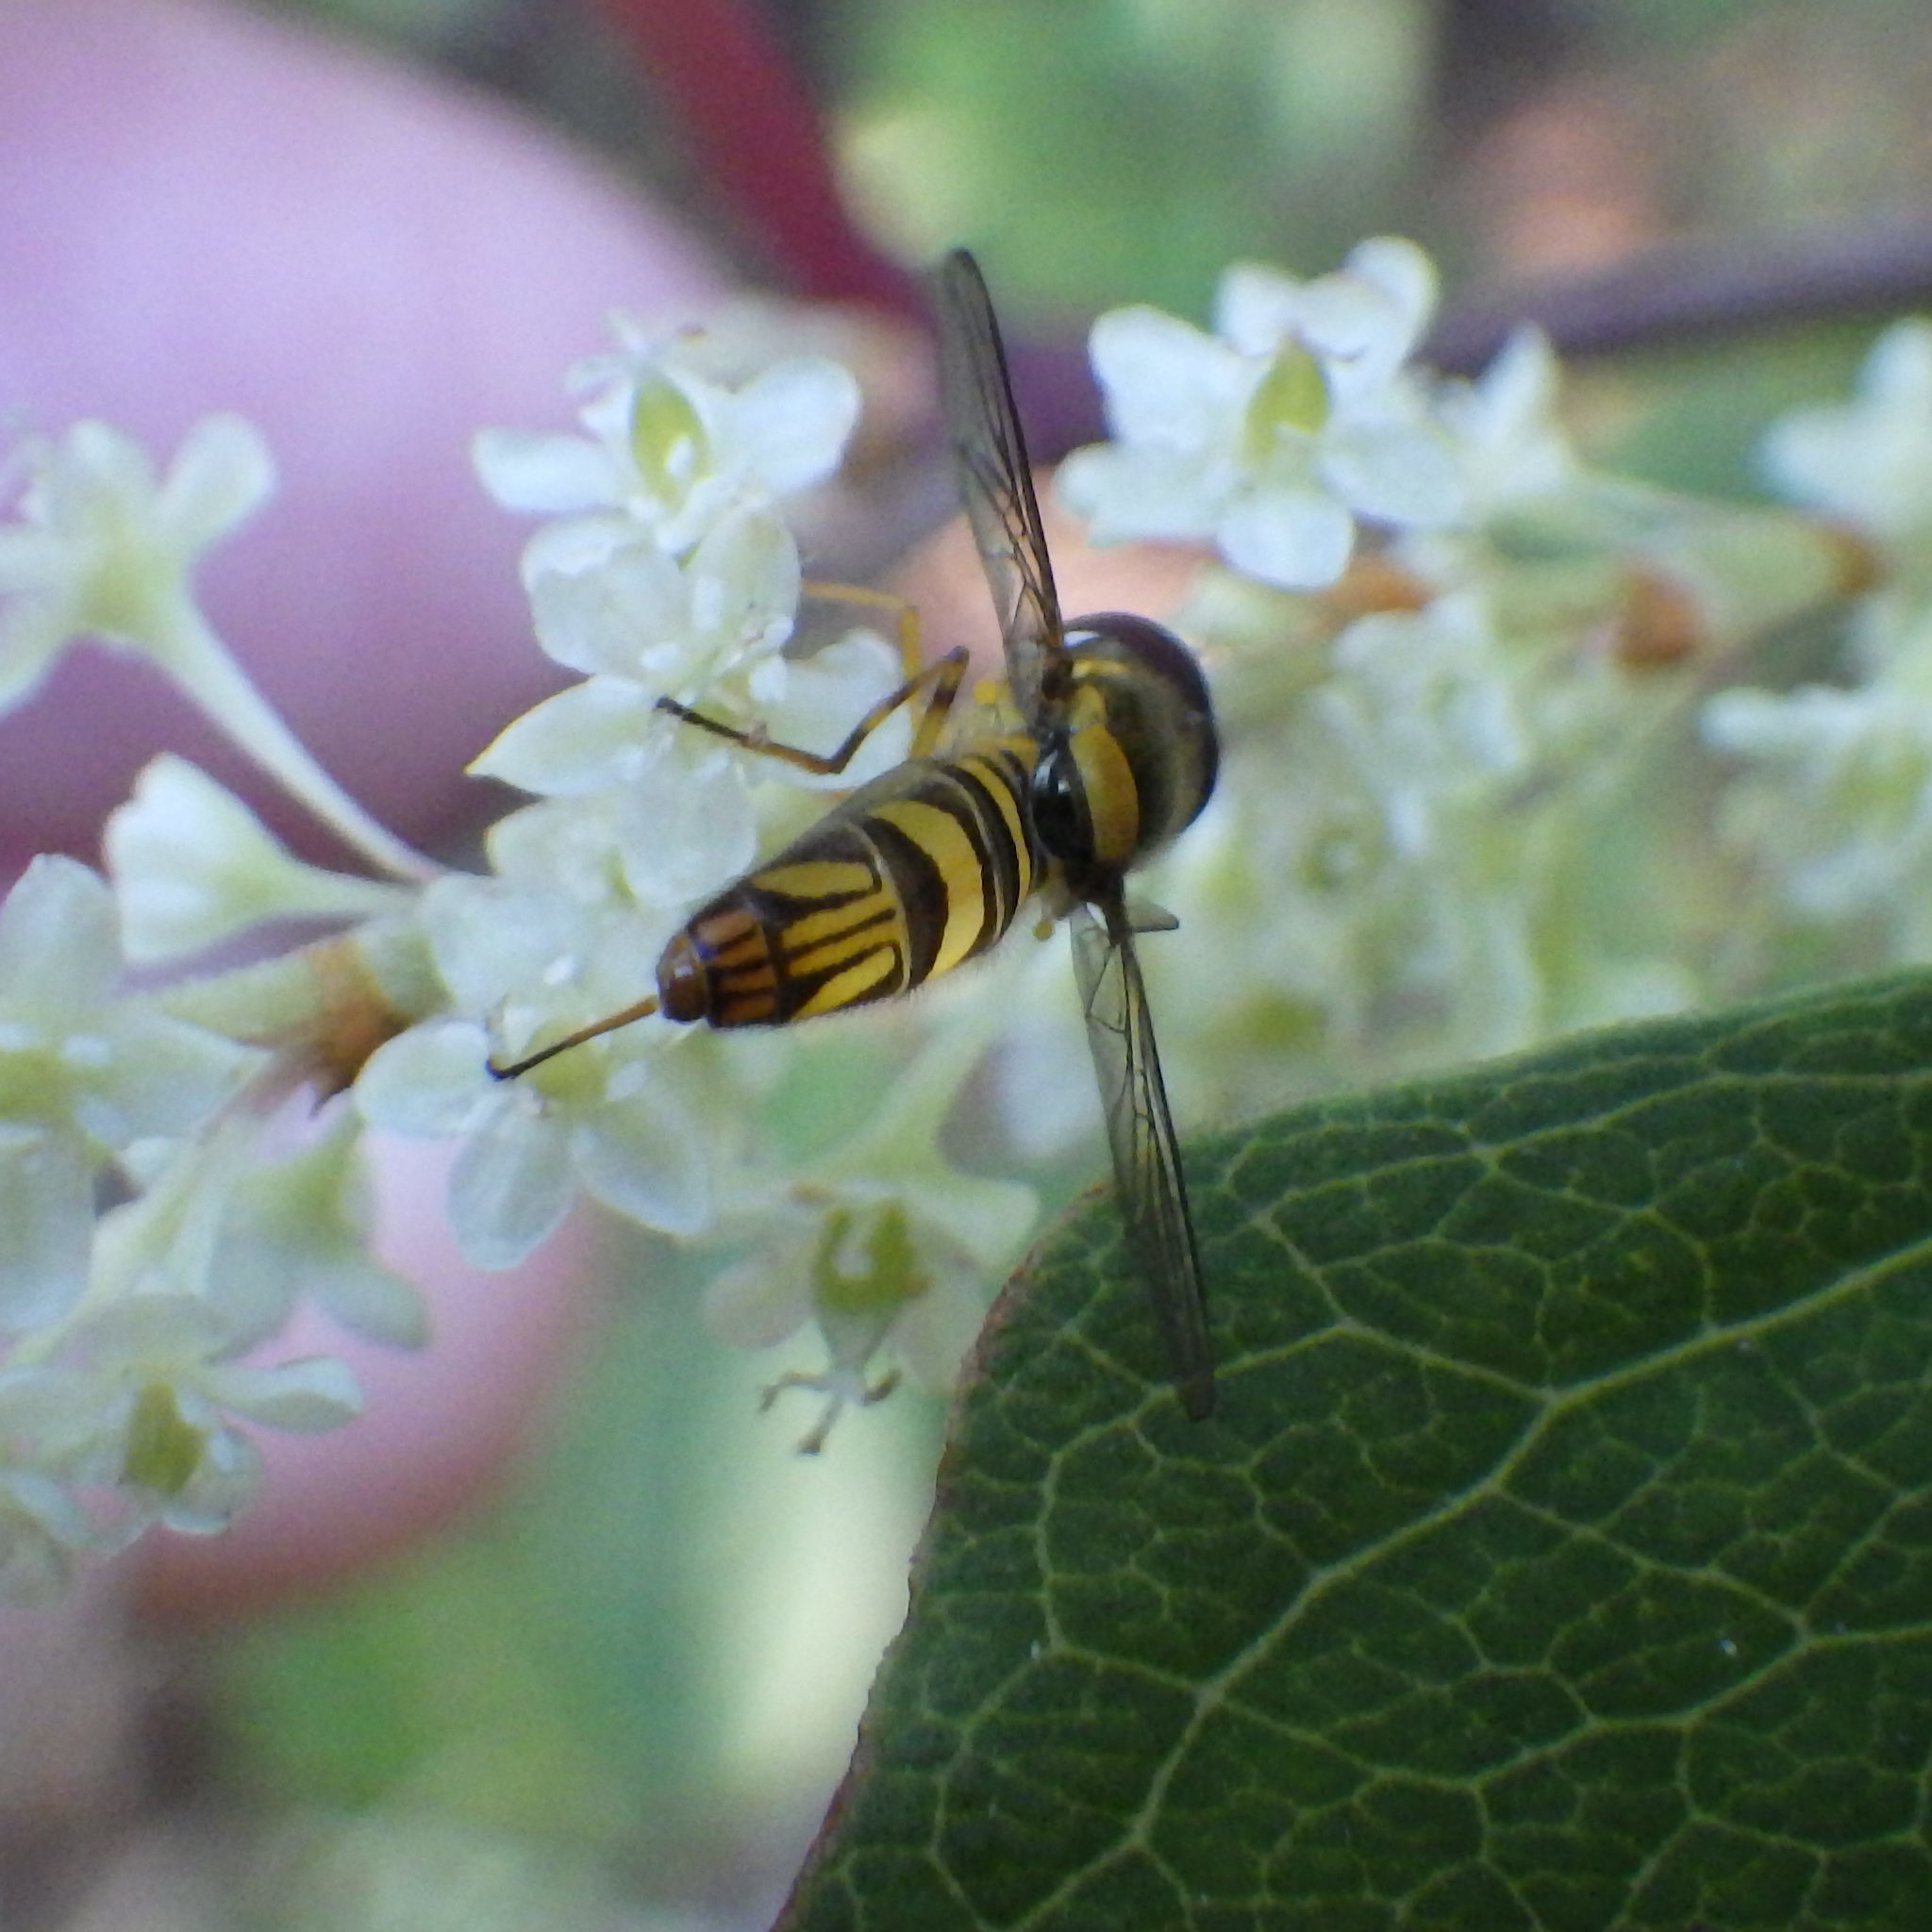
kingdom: Animalia
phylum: Arthropoda
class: Insecta
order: Diptera
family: Syrphidae
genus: Allograpta
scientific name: Allograpta obliqua
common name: Common oblique syrphid
